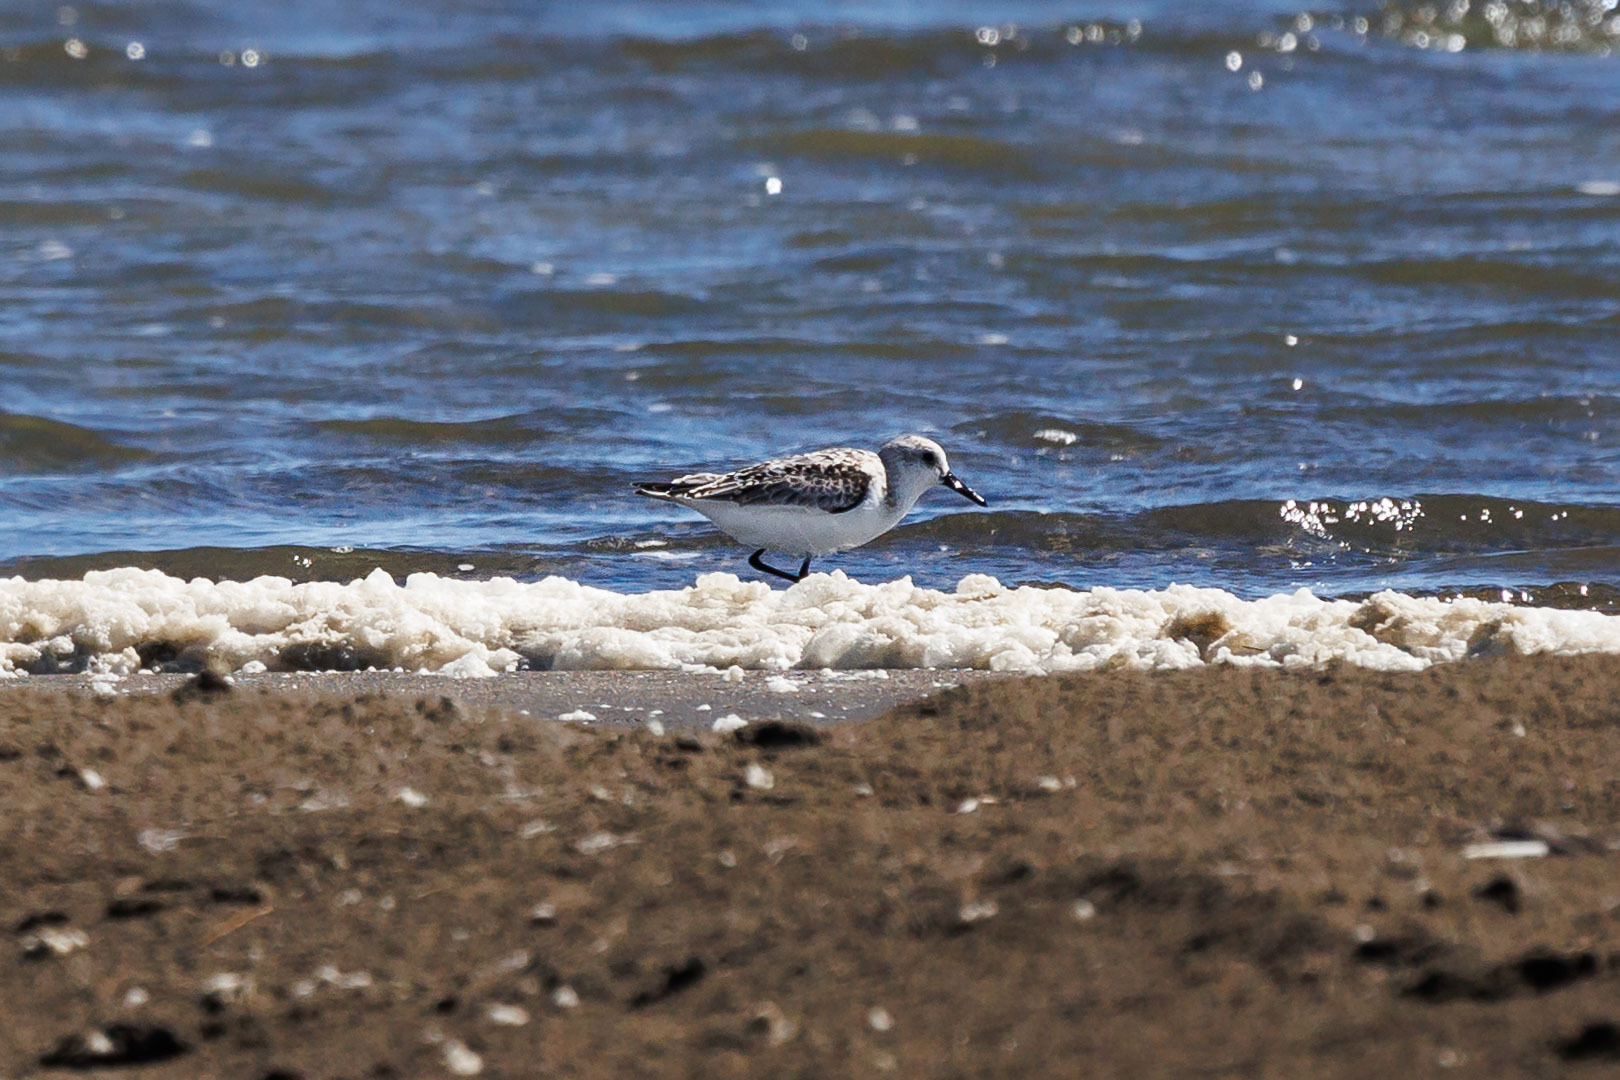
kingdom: Animalia
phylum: Chordata
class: Aves
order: Charadriiformes
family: Scolopacidae
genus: Calidris
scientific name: Calidris alba
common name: Sanderling
